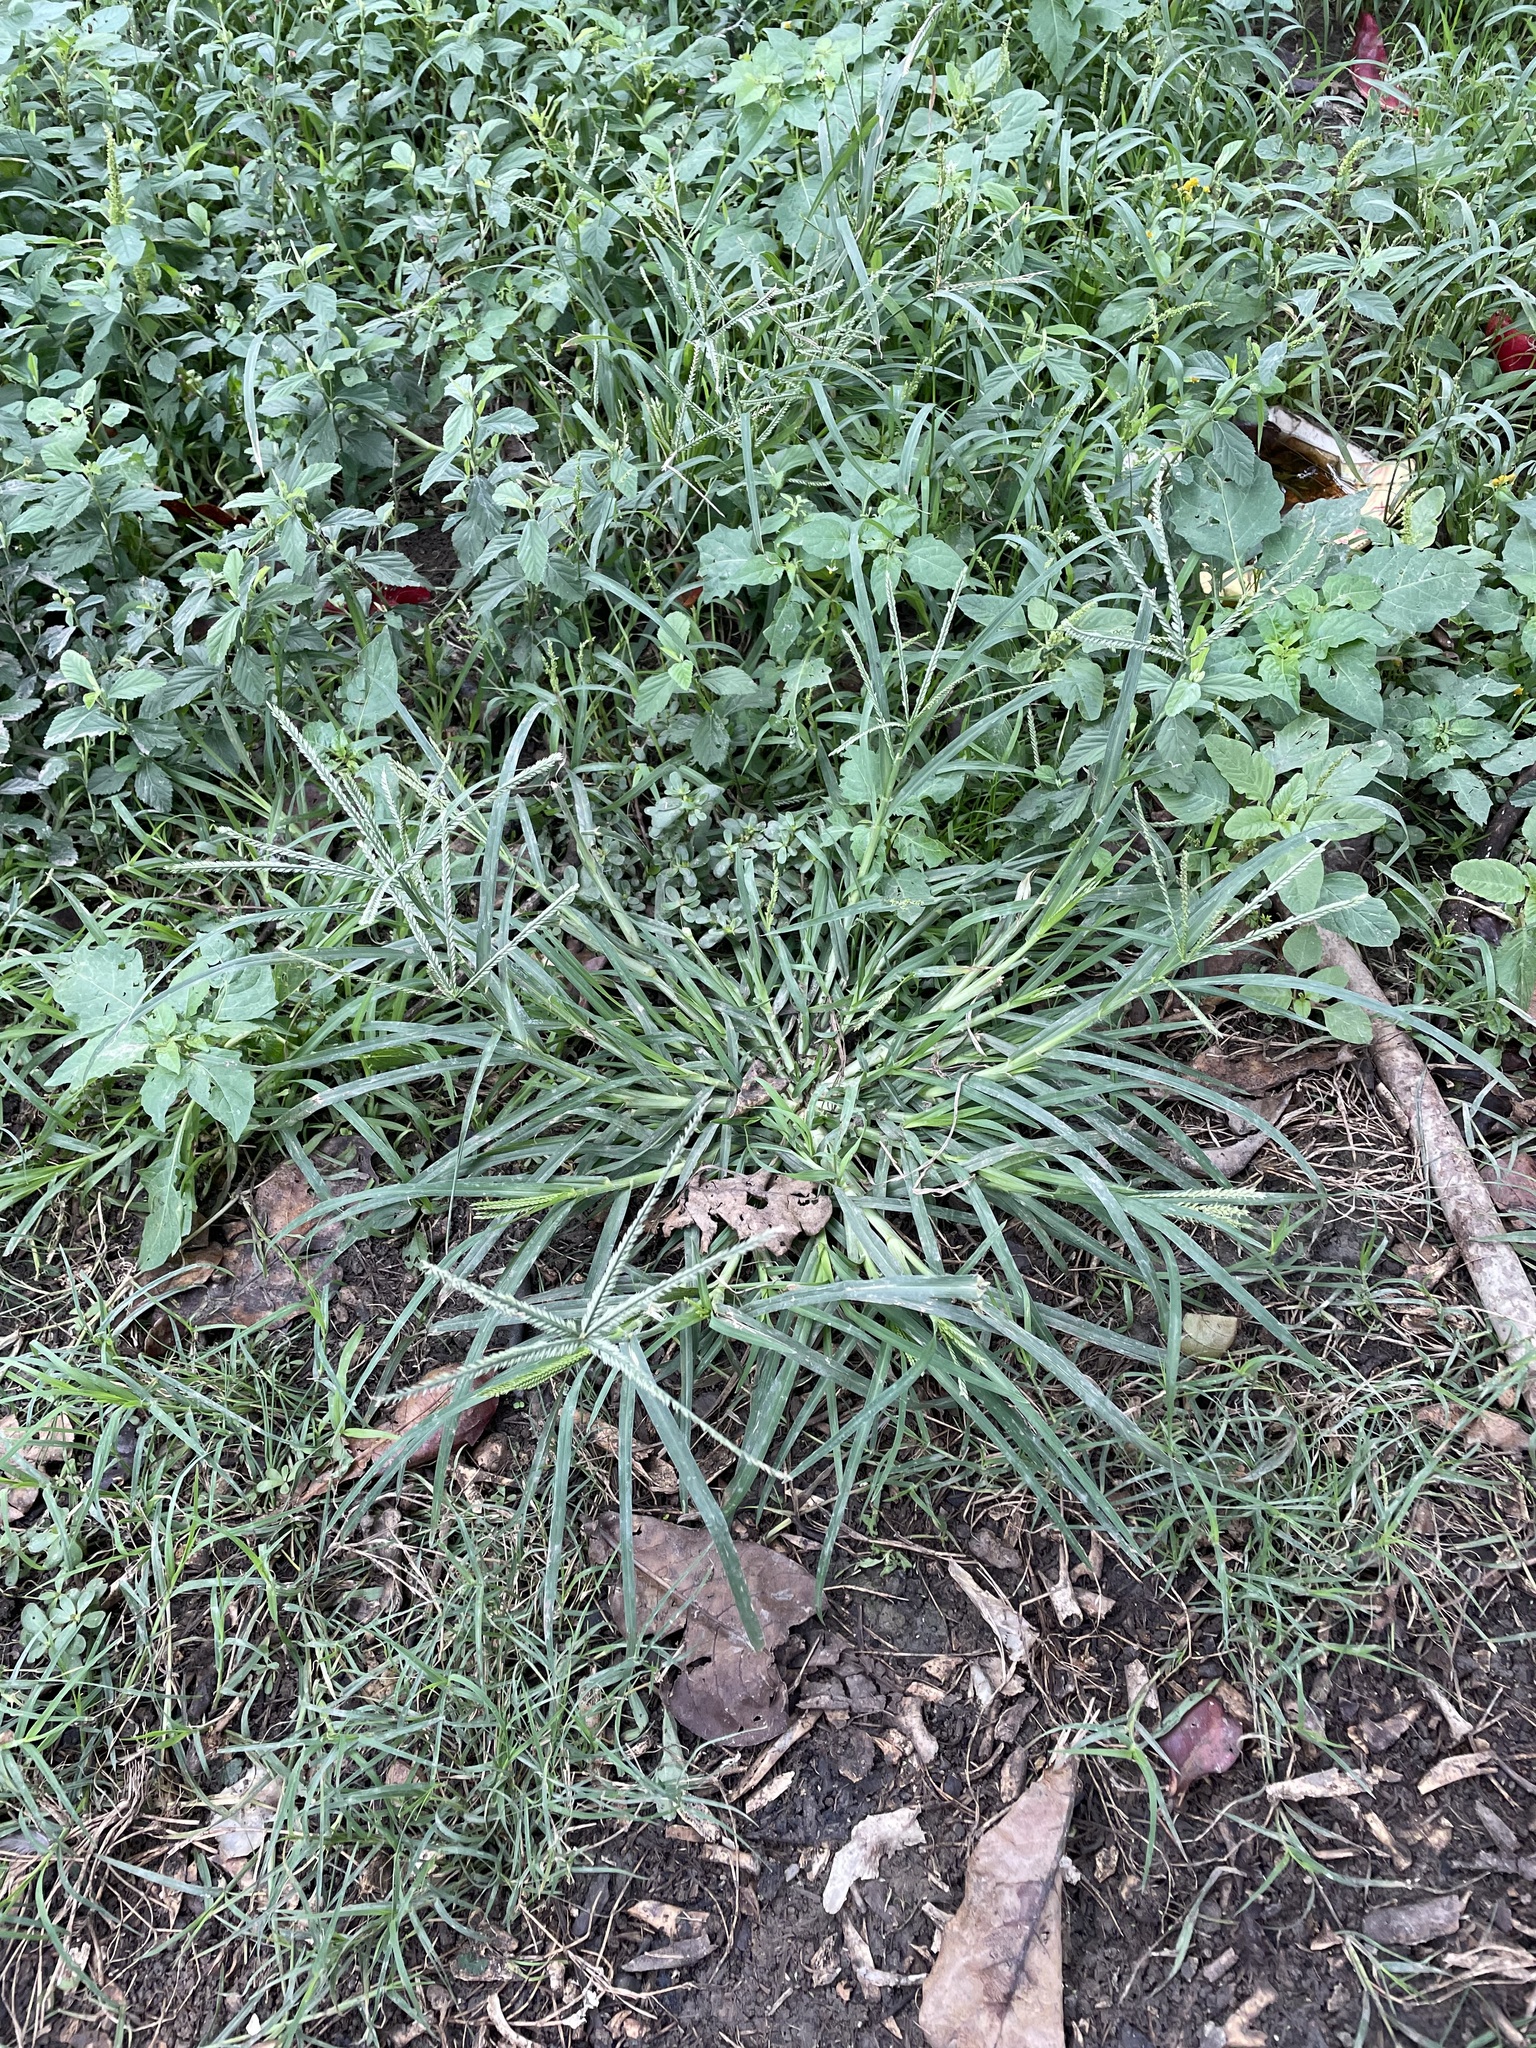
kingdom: Plantae
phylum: Tracheophyta
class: Liliopsida
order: Poales
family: Poaceae
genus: Eleusine
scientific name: Eleusine indica
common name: Yard-grass
